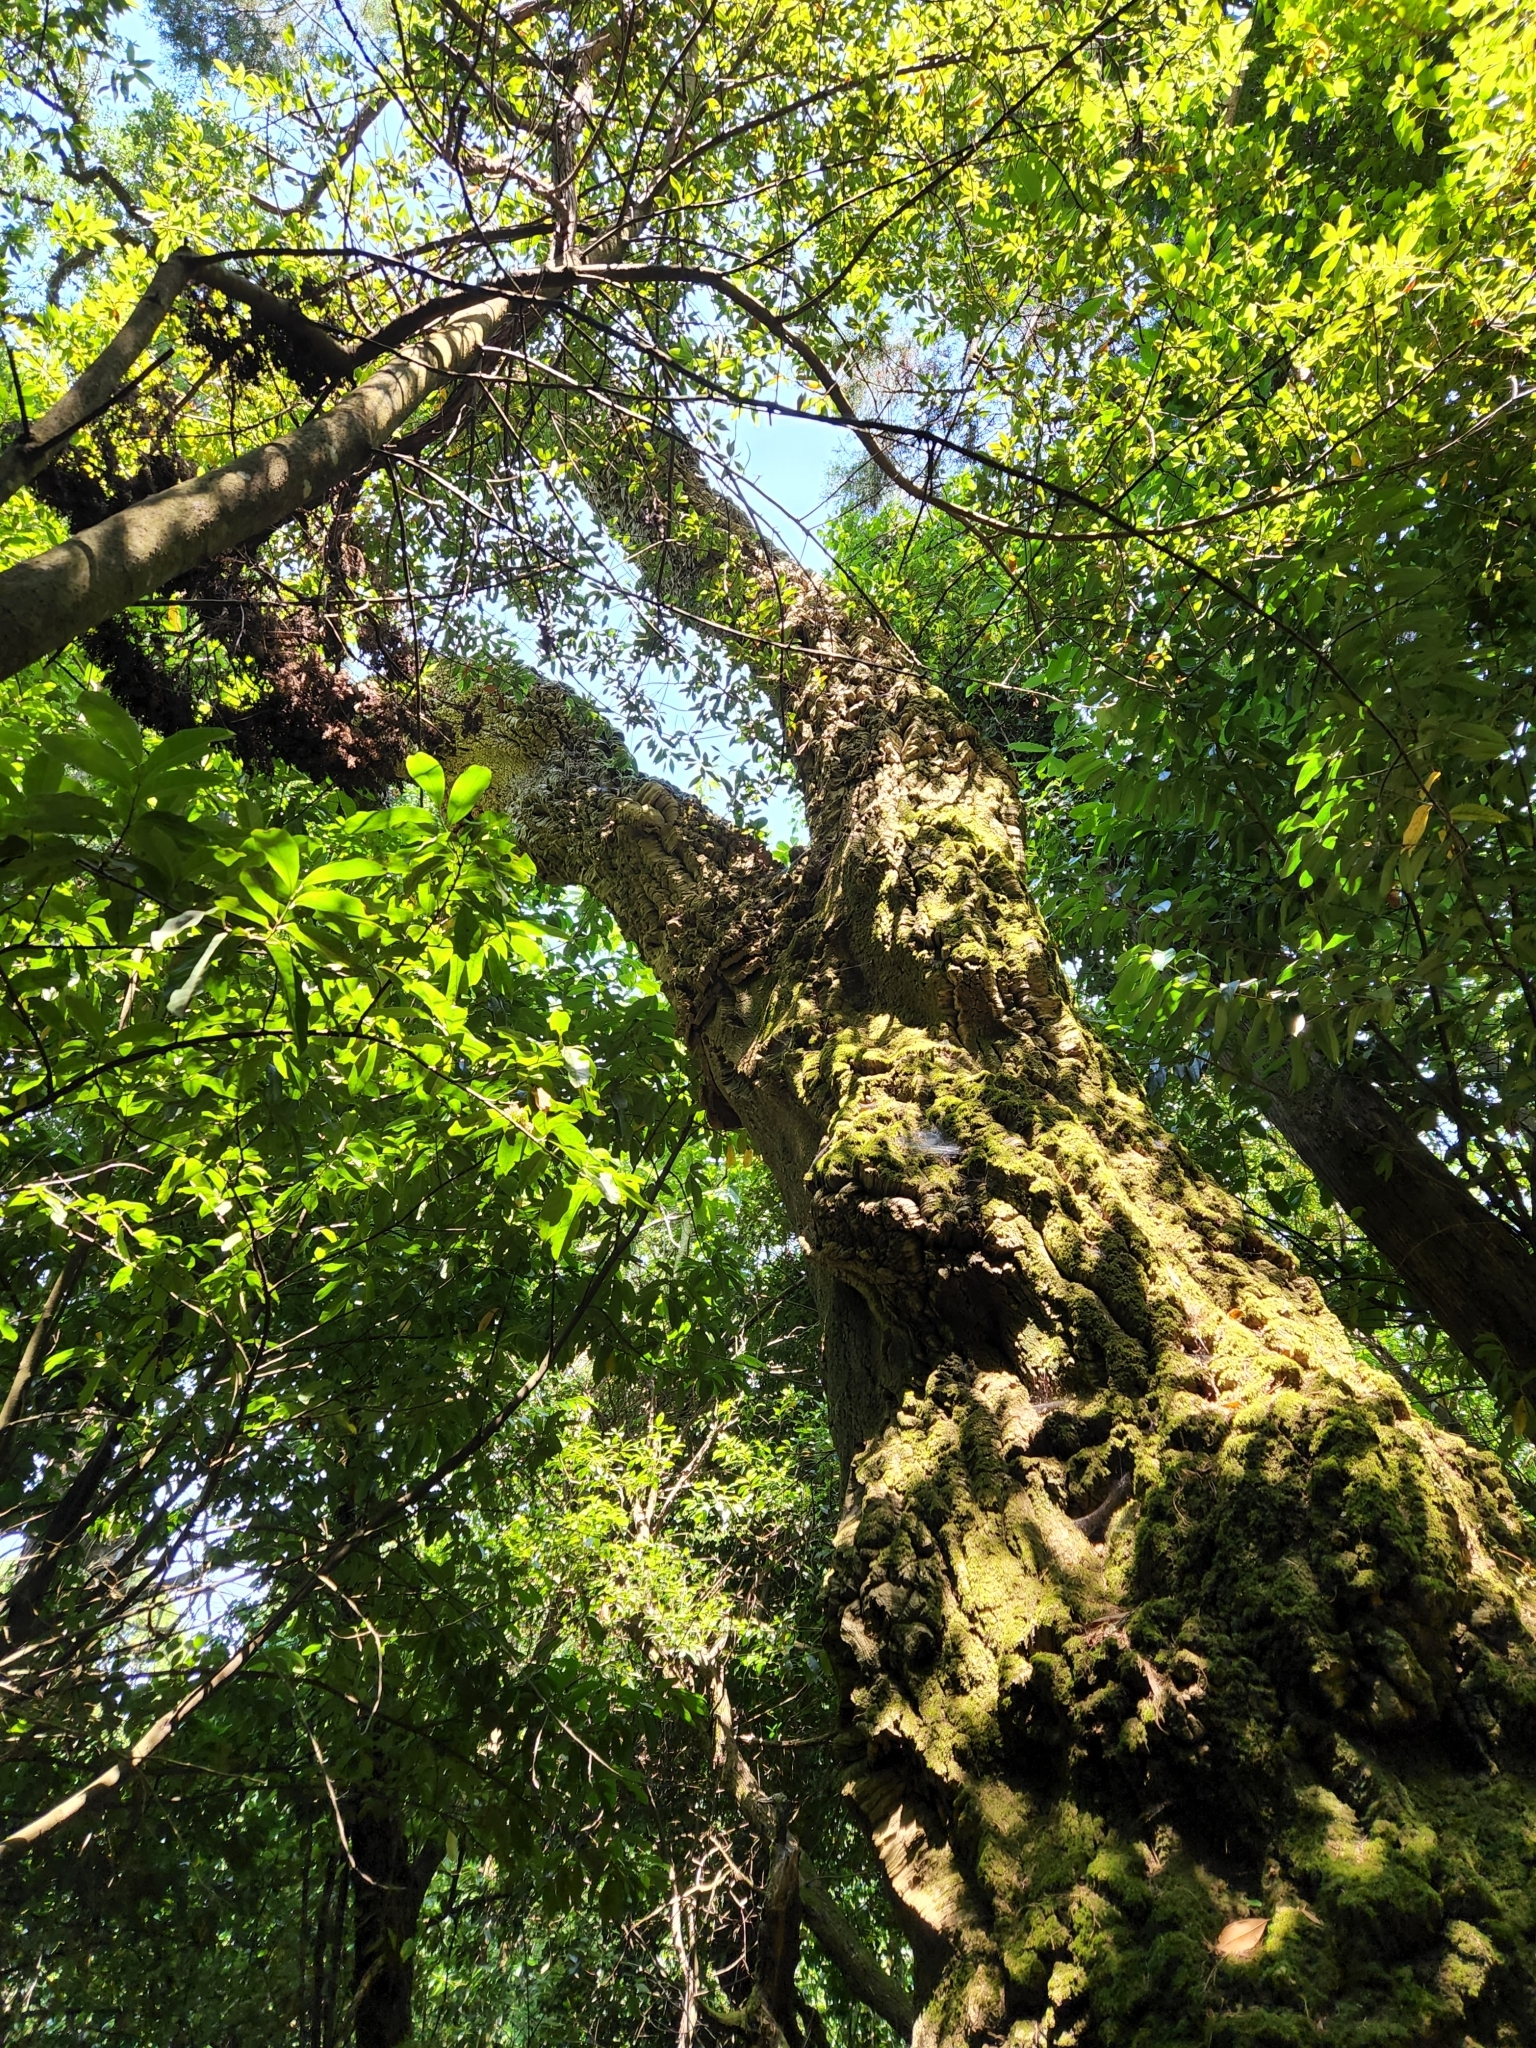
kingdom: Plantae
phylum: Tracheophyta
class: Magnoliopsida
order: Fagales
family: Fagaceae
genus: Quercus
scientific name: Quercus suber
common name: Cork oak
